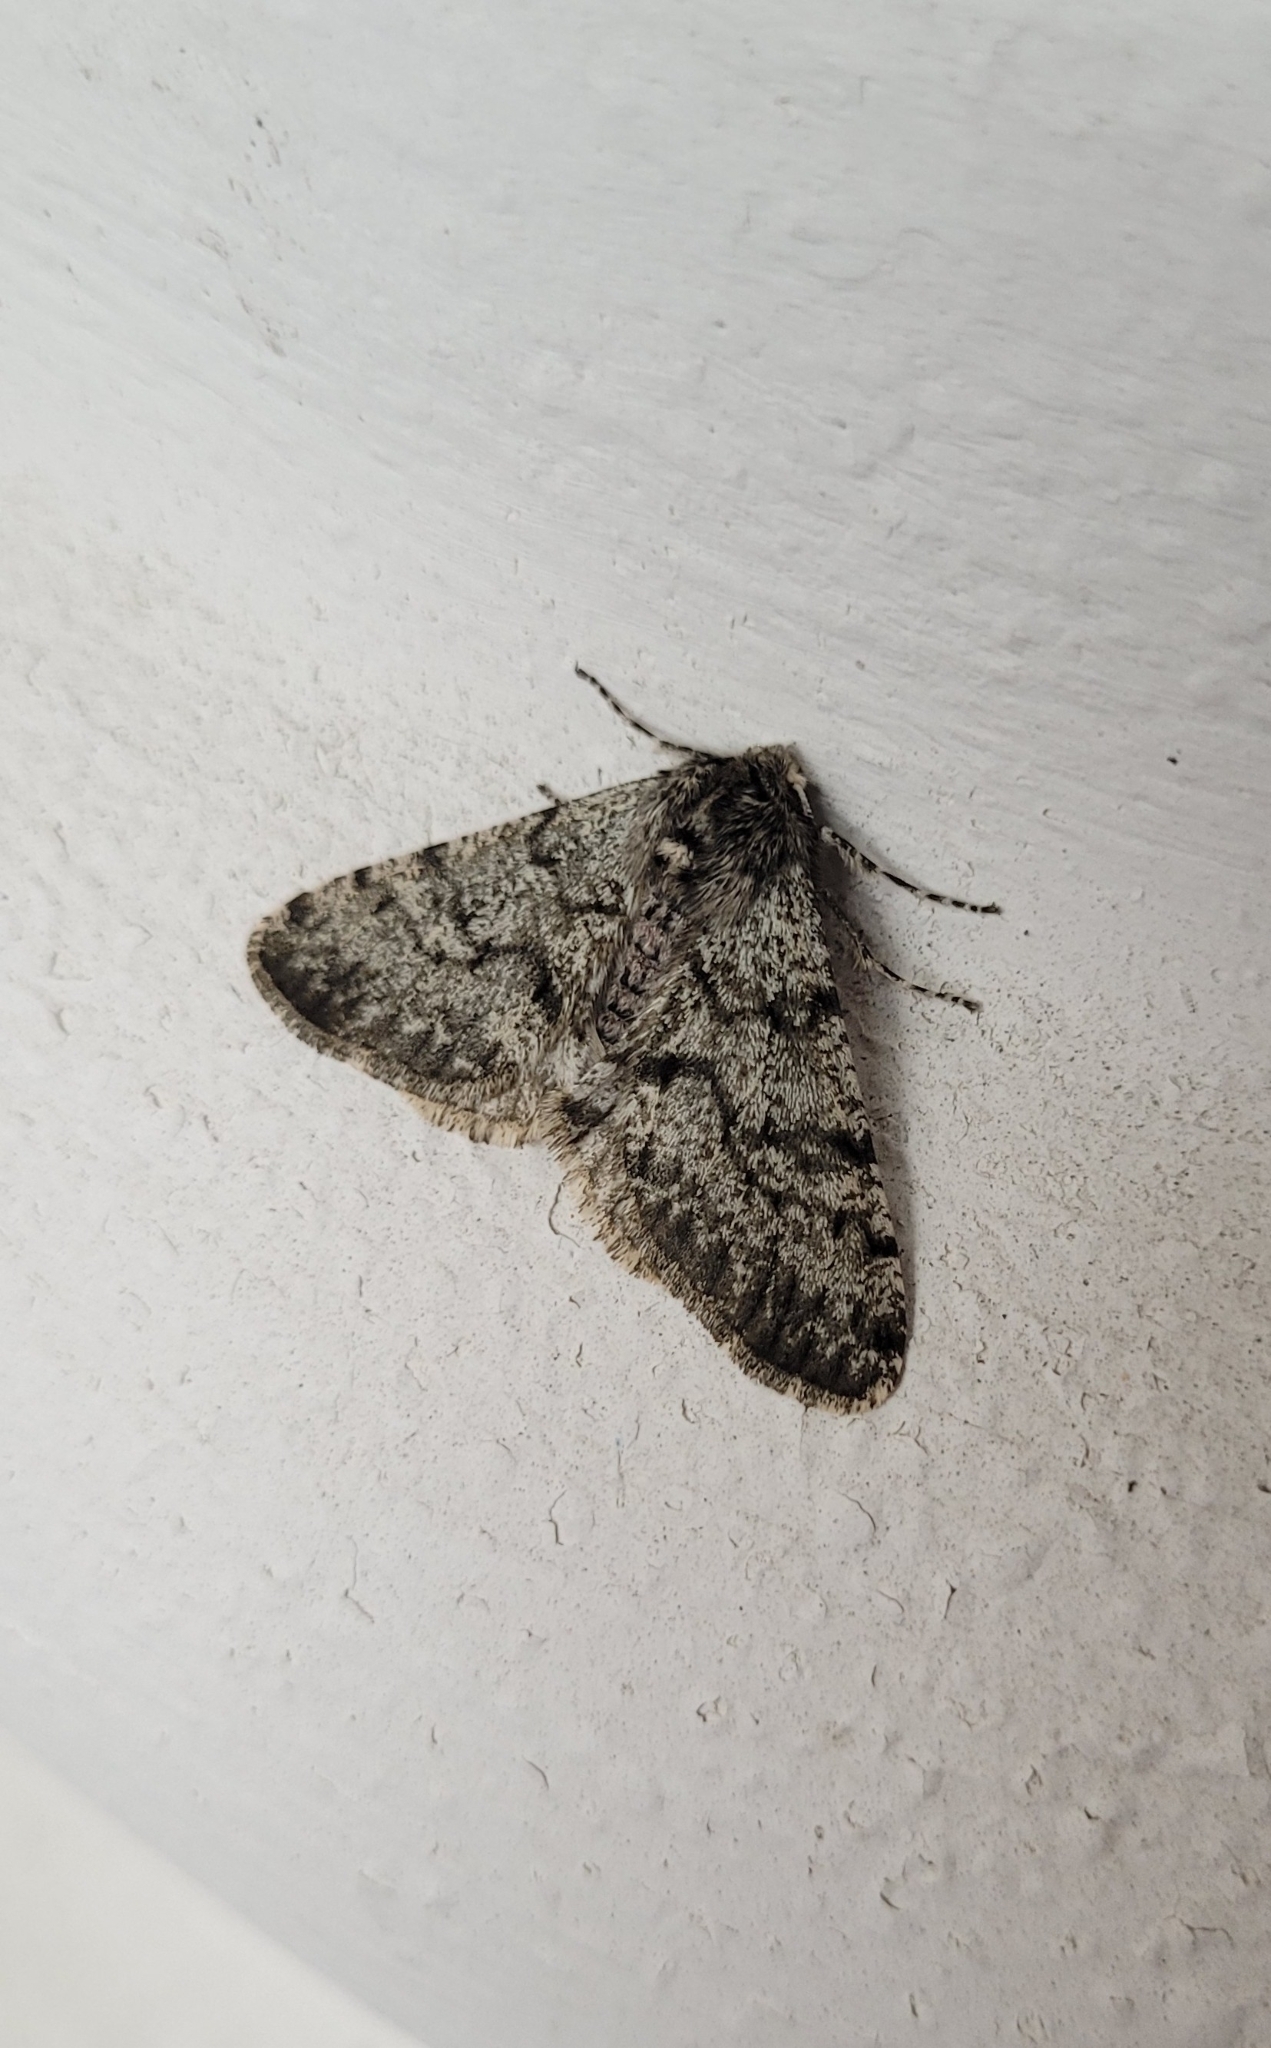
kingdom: Animalia
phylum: Arthropoda
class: Insecta
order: Lepidoptera
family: Geometridae
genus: Phigalia
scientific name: Phigalia pilosaria
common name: Pale brindled beauty
